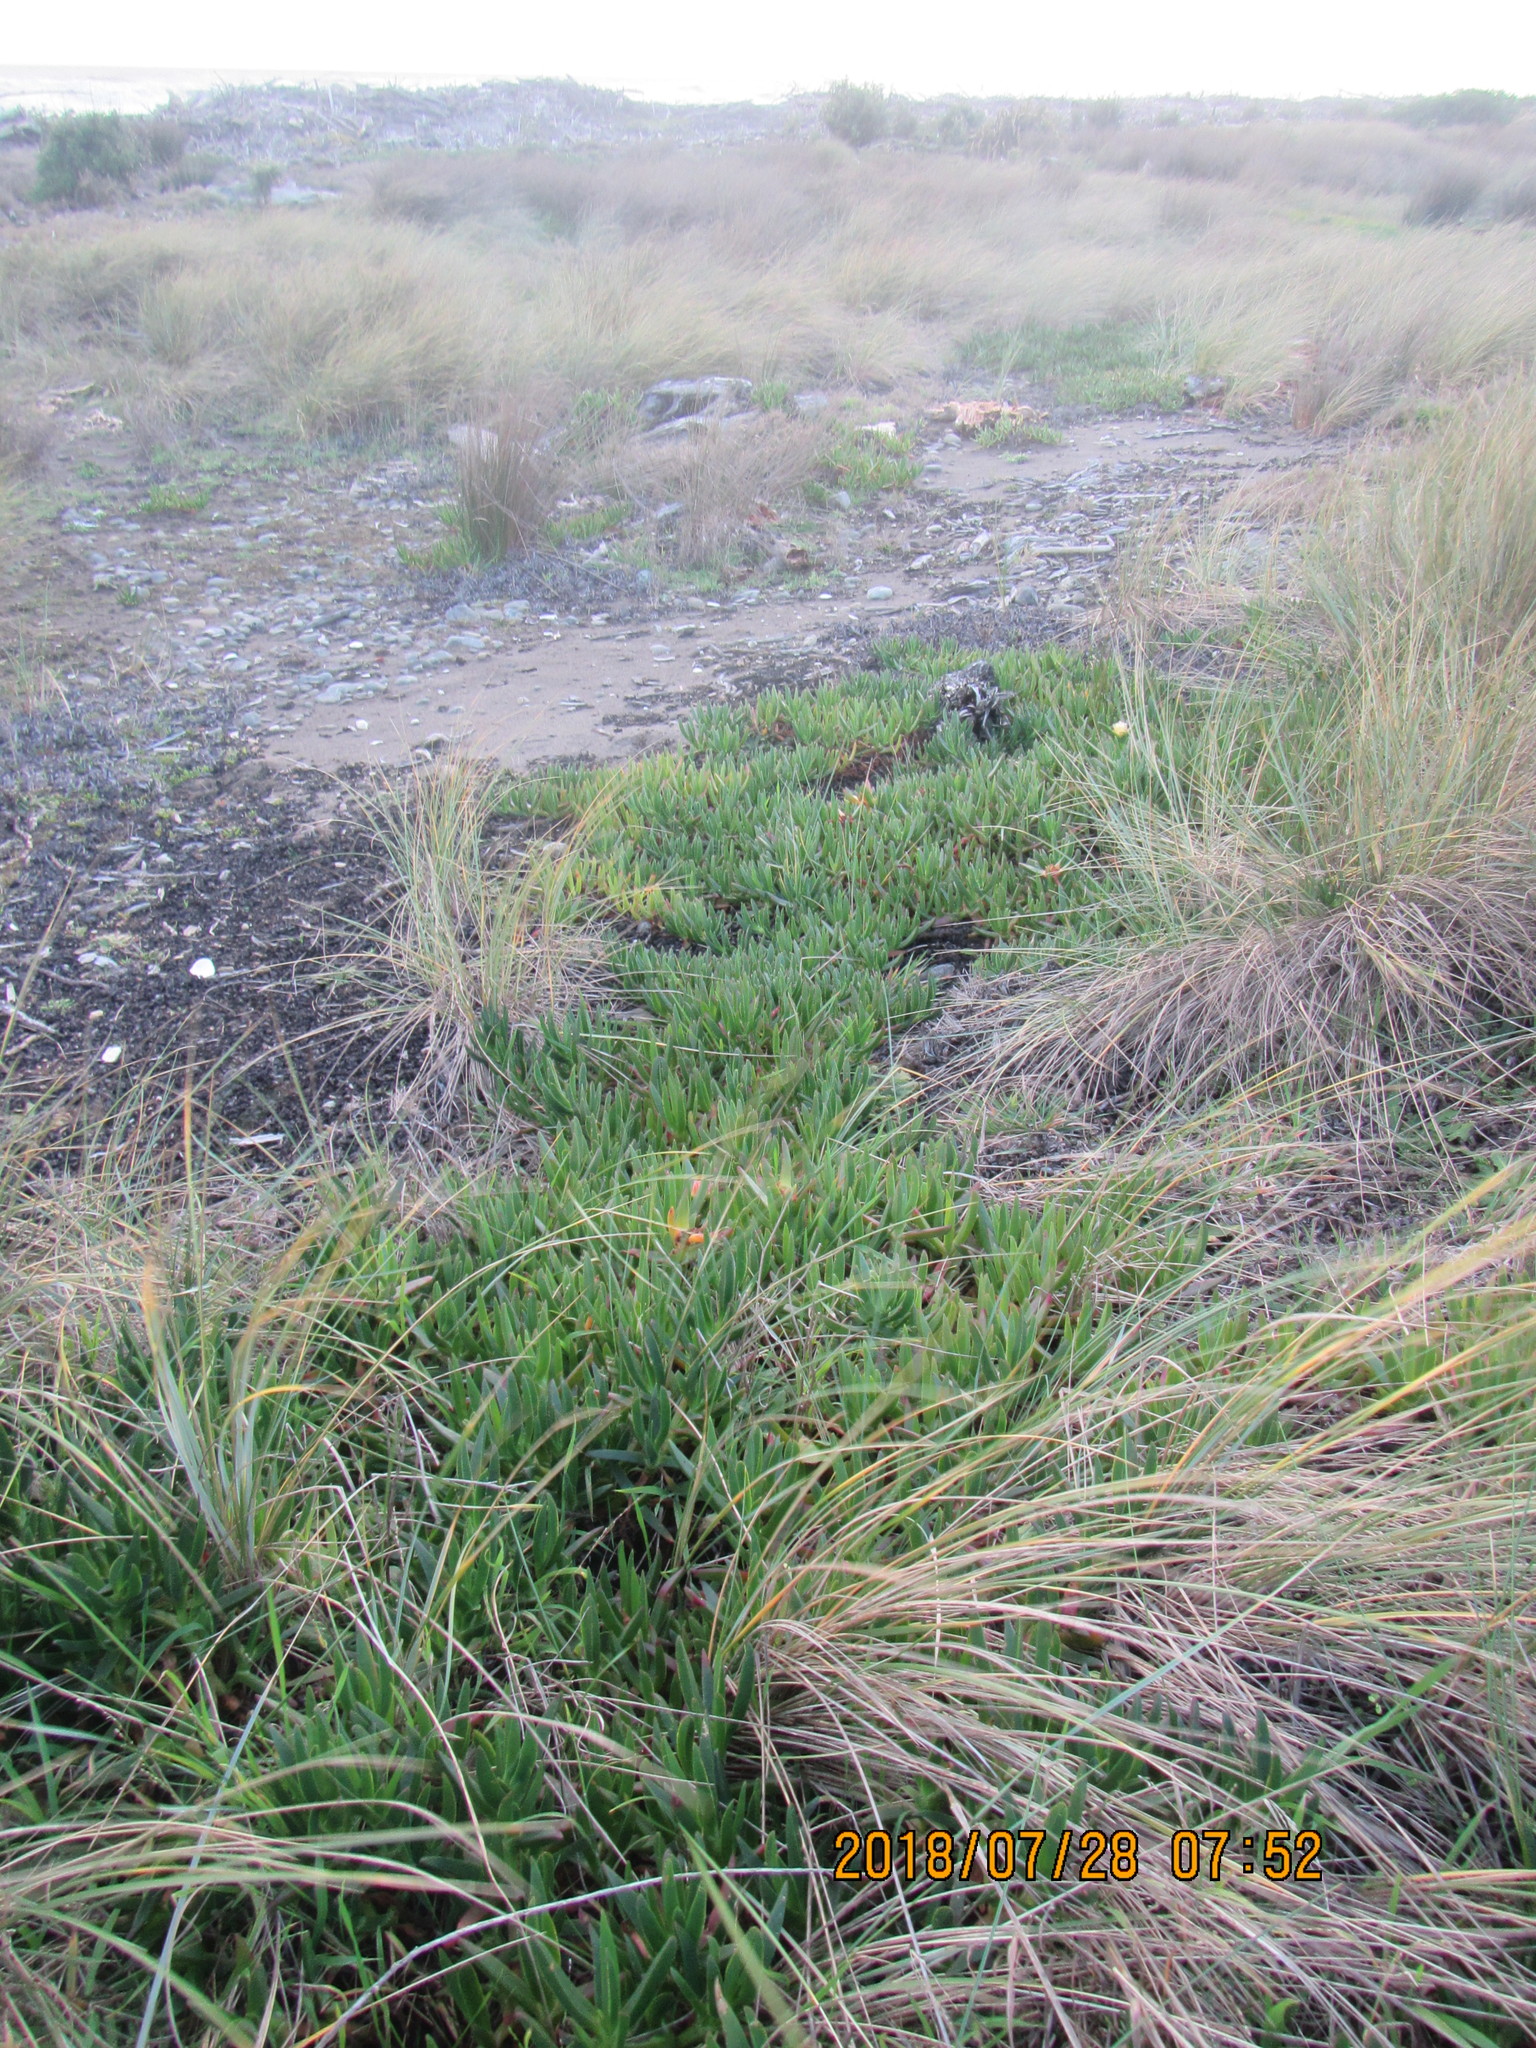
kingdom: Plantae
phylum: Tracheophyta
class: Magnoliopsida
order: Caryophyllales
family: Aizoaceae
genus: Carpobrotus
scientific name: Carpobrotus edulis
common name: Hottentot-fig
